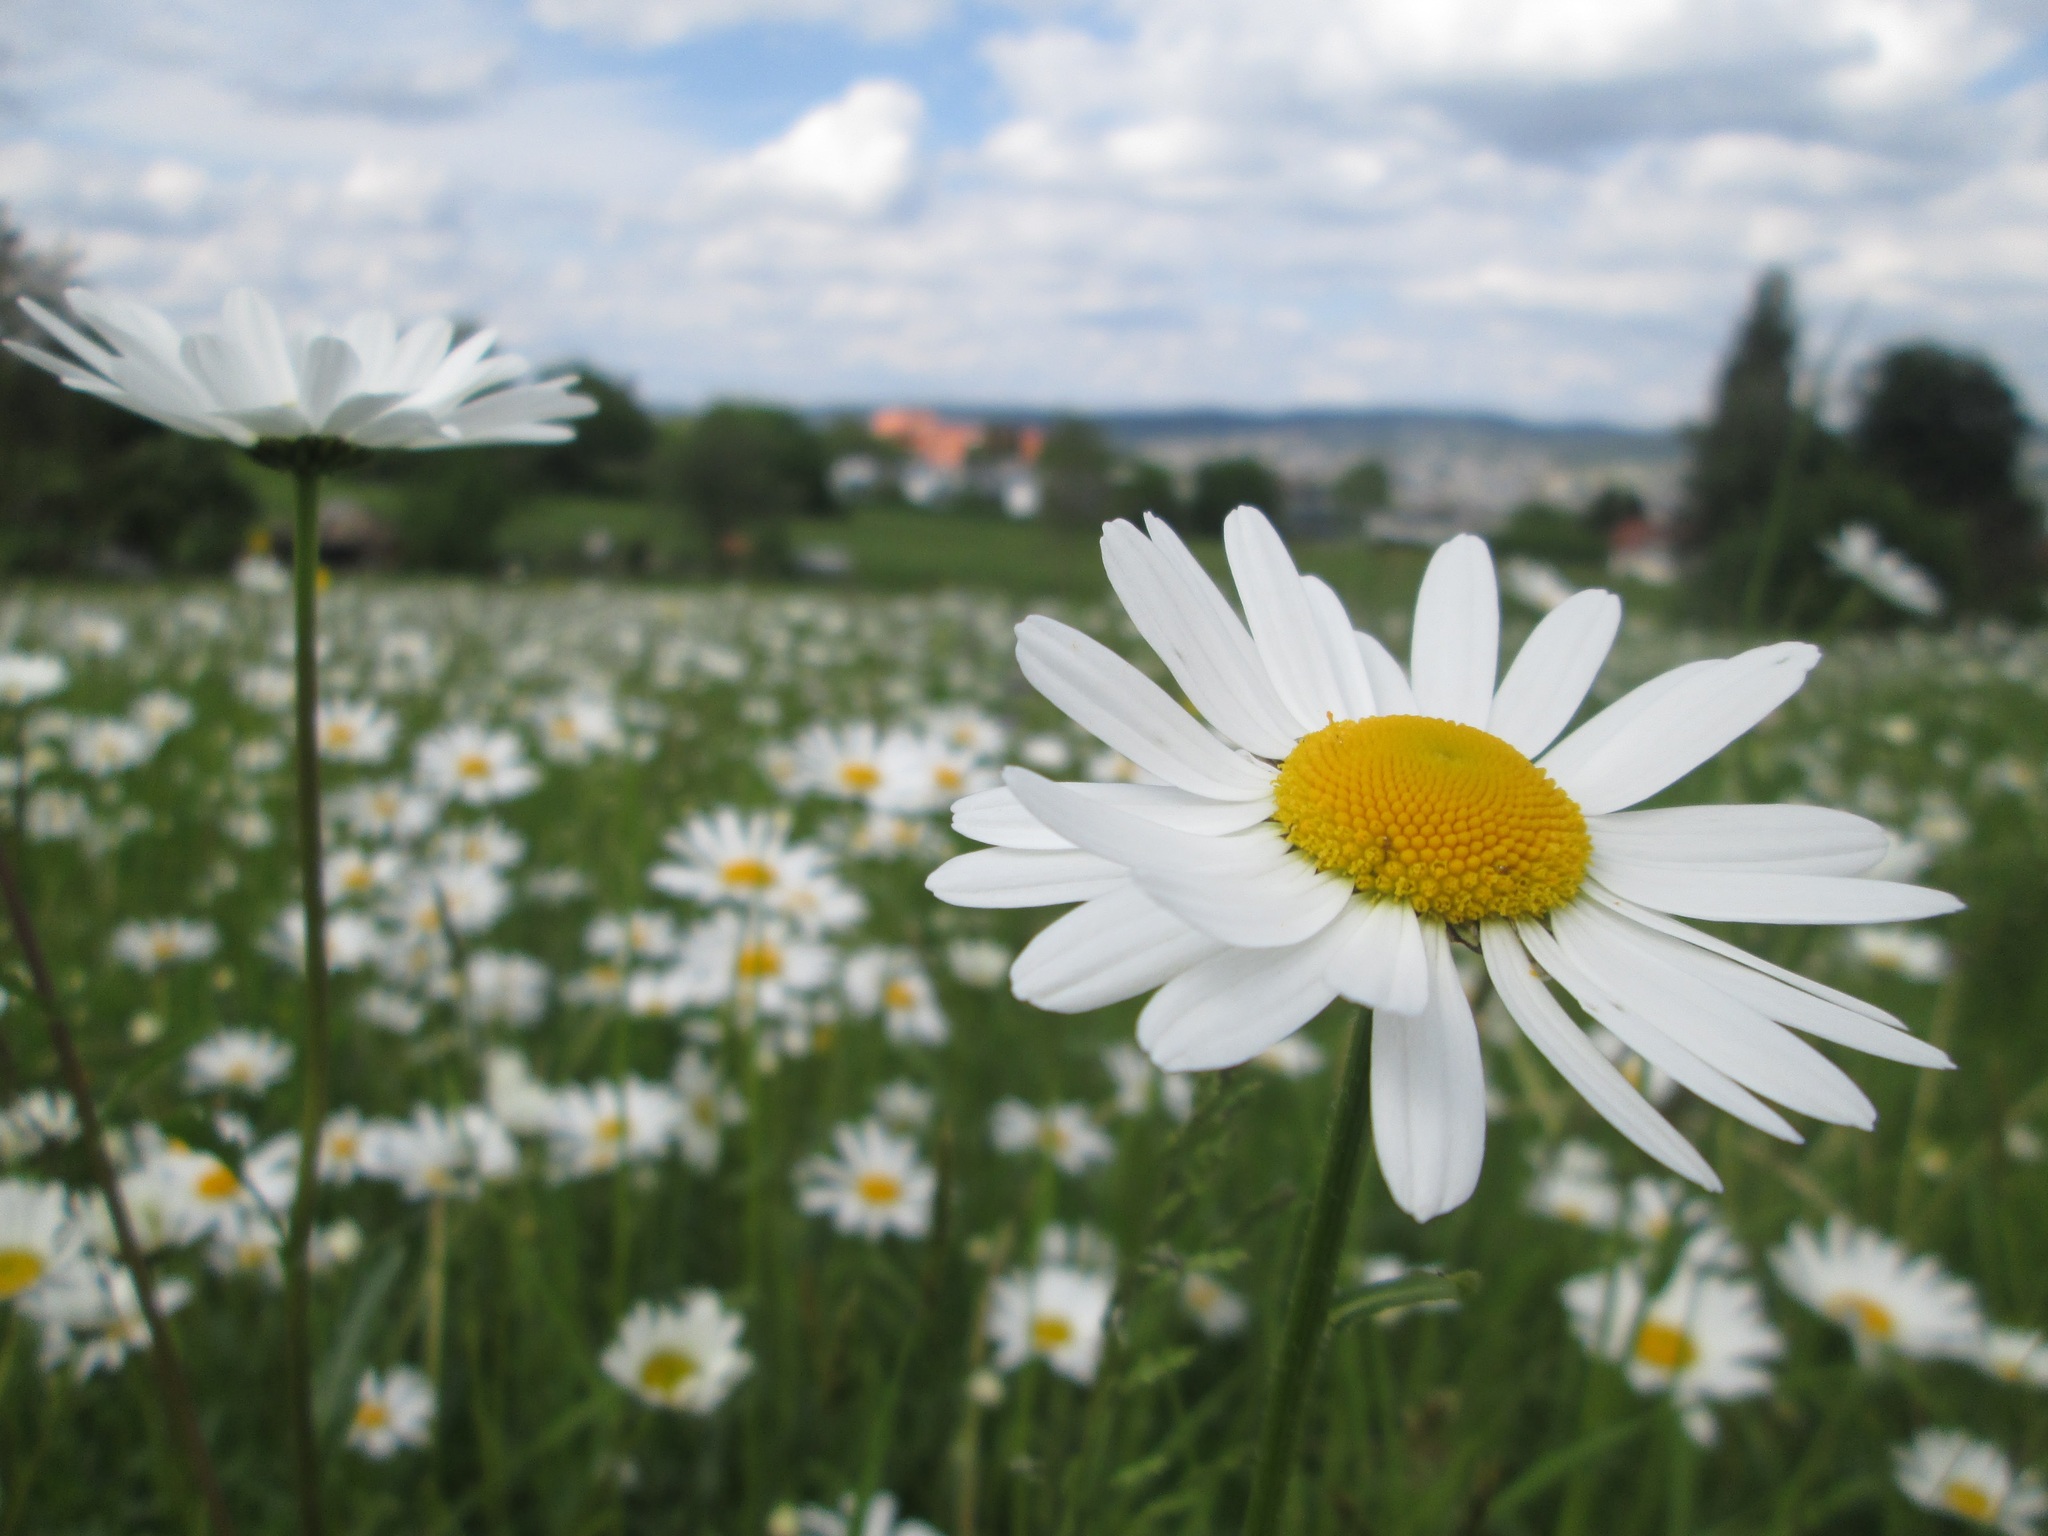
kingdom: Plantae
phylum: Tracheophyta
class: Magnoliopsida
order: Asterales
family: Asteraceae
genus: Leucanthemum
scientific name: Leucanthemum vulgare
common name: Oxeye daisy
